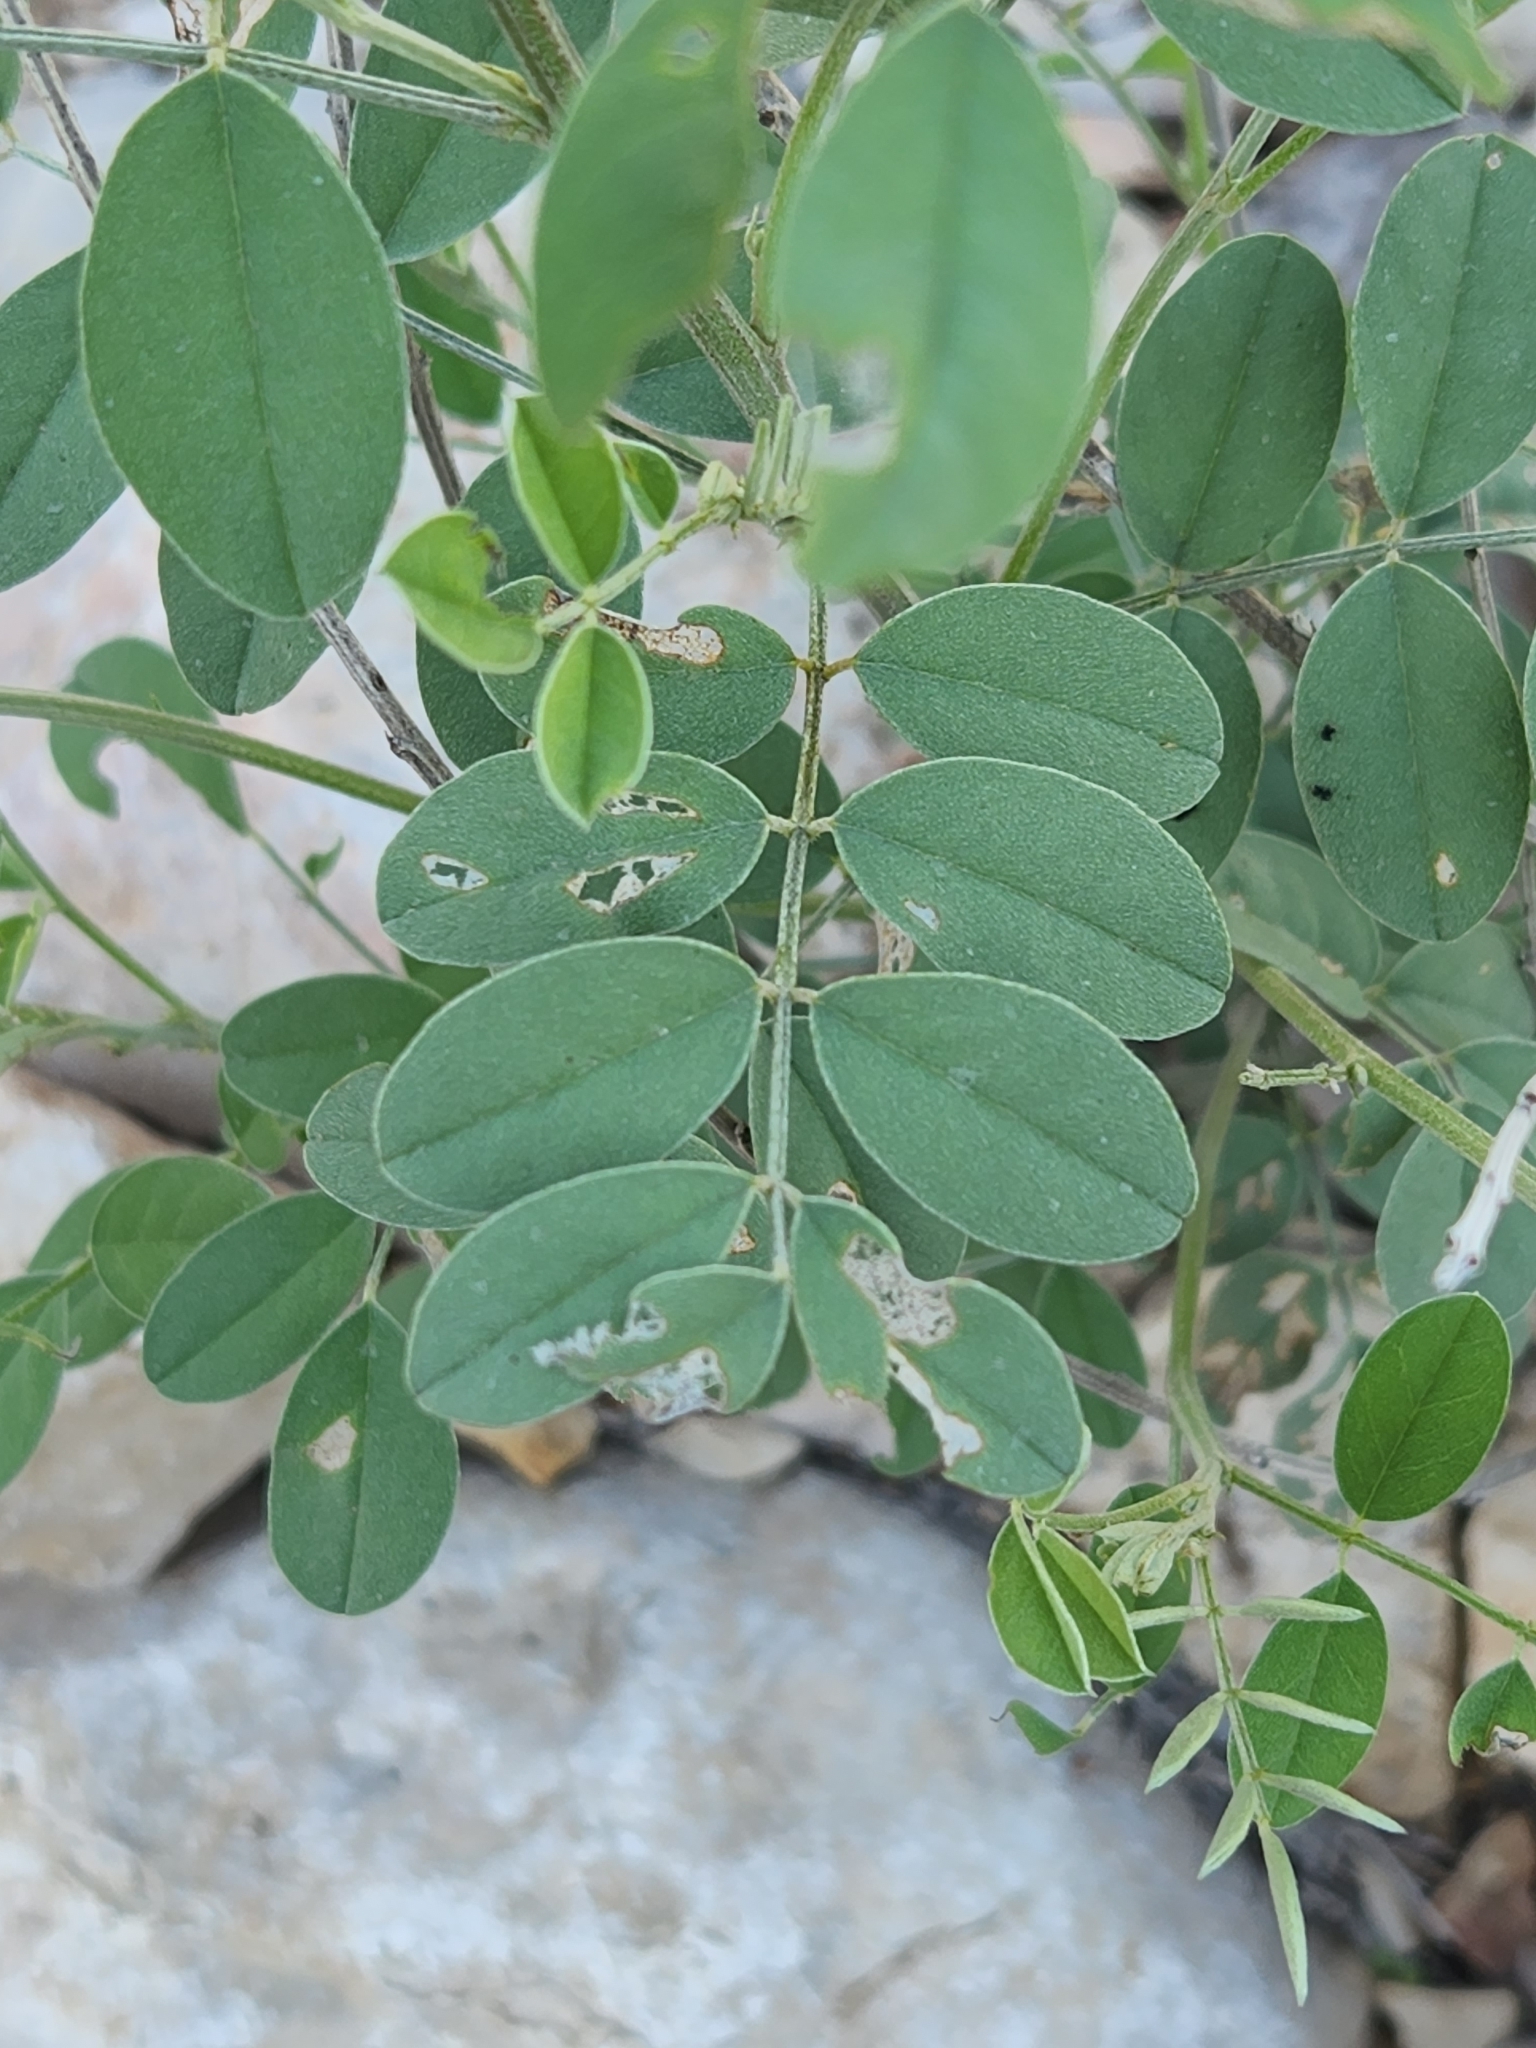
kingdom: Plantae
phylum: Tracheophyta
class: Magnoliopsida
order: Fabales
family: Fabaceae
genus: Indigofera
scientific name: Indigofera lindheimeriana
